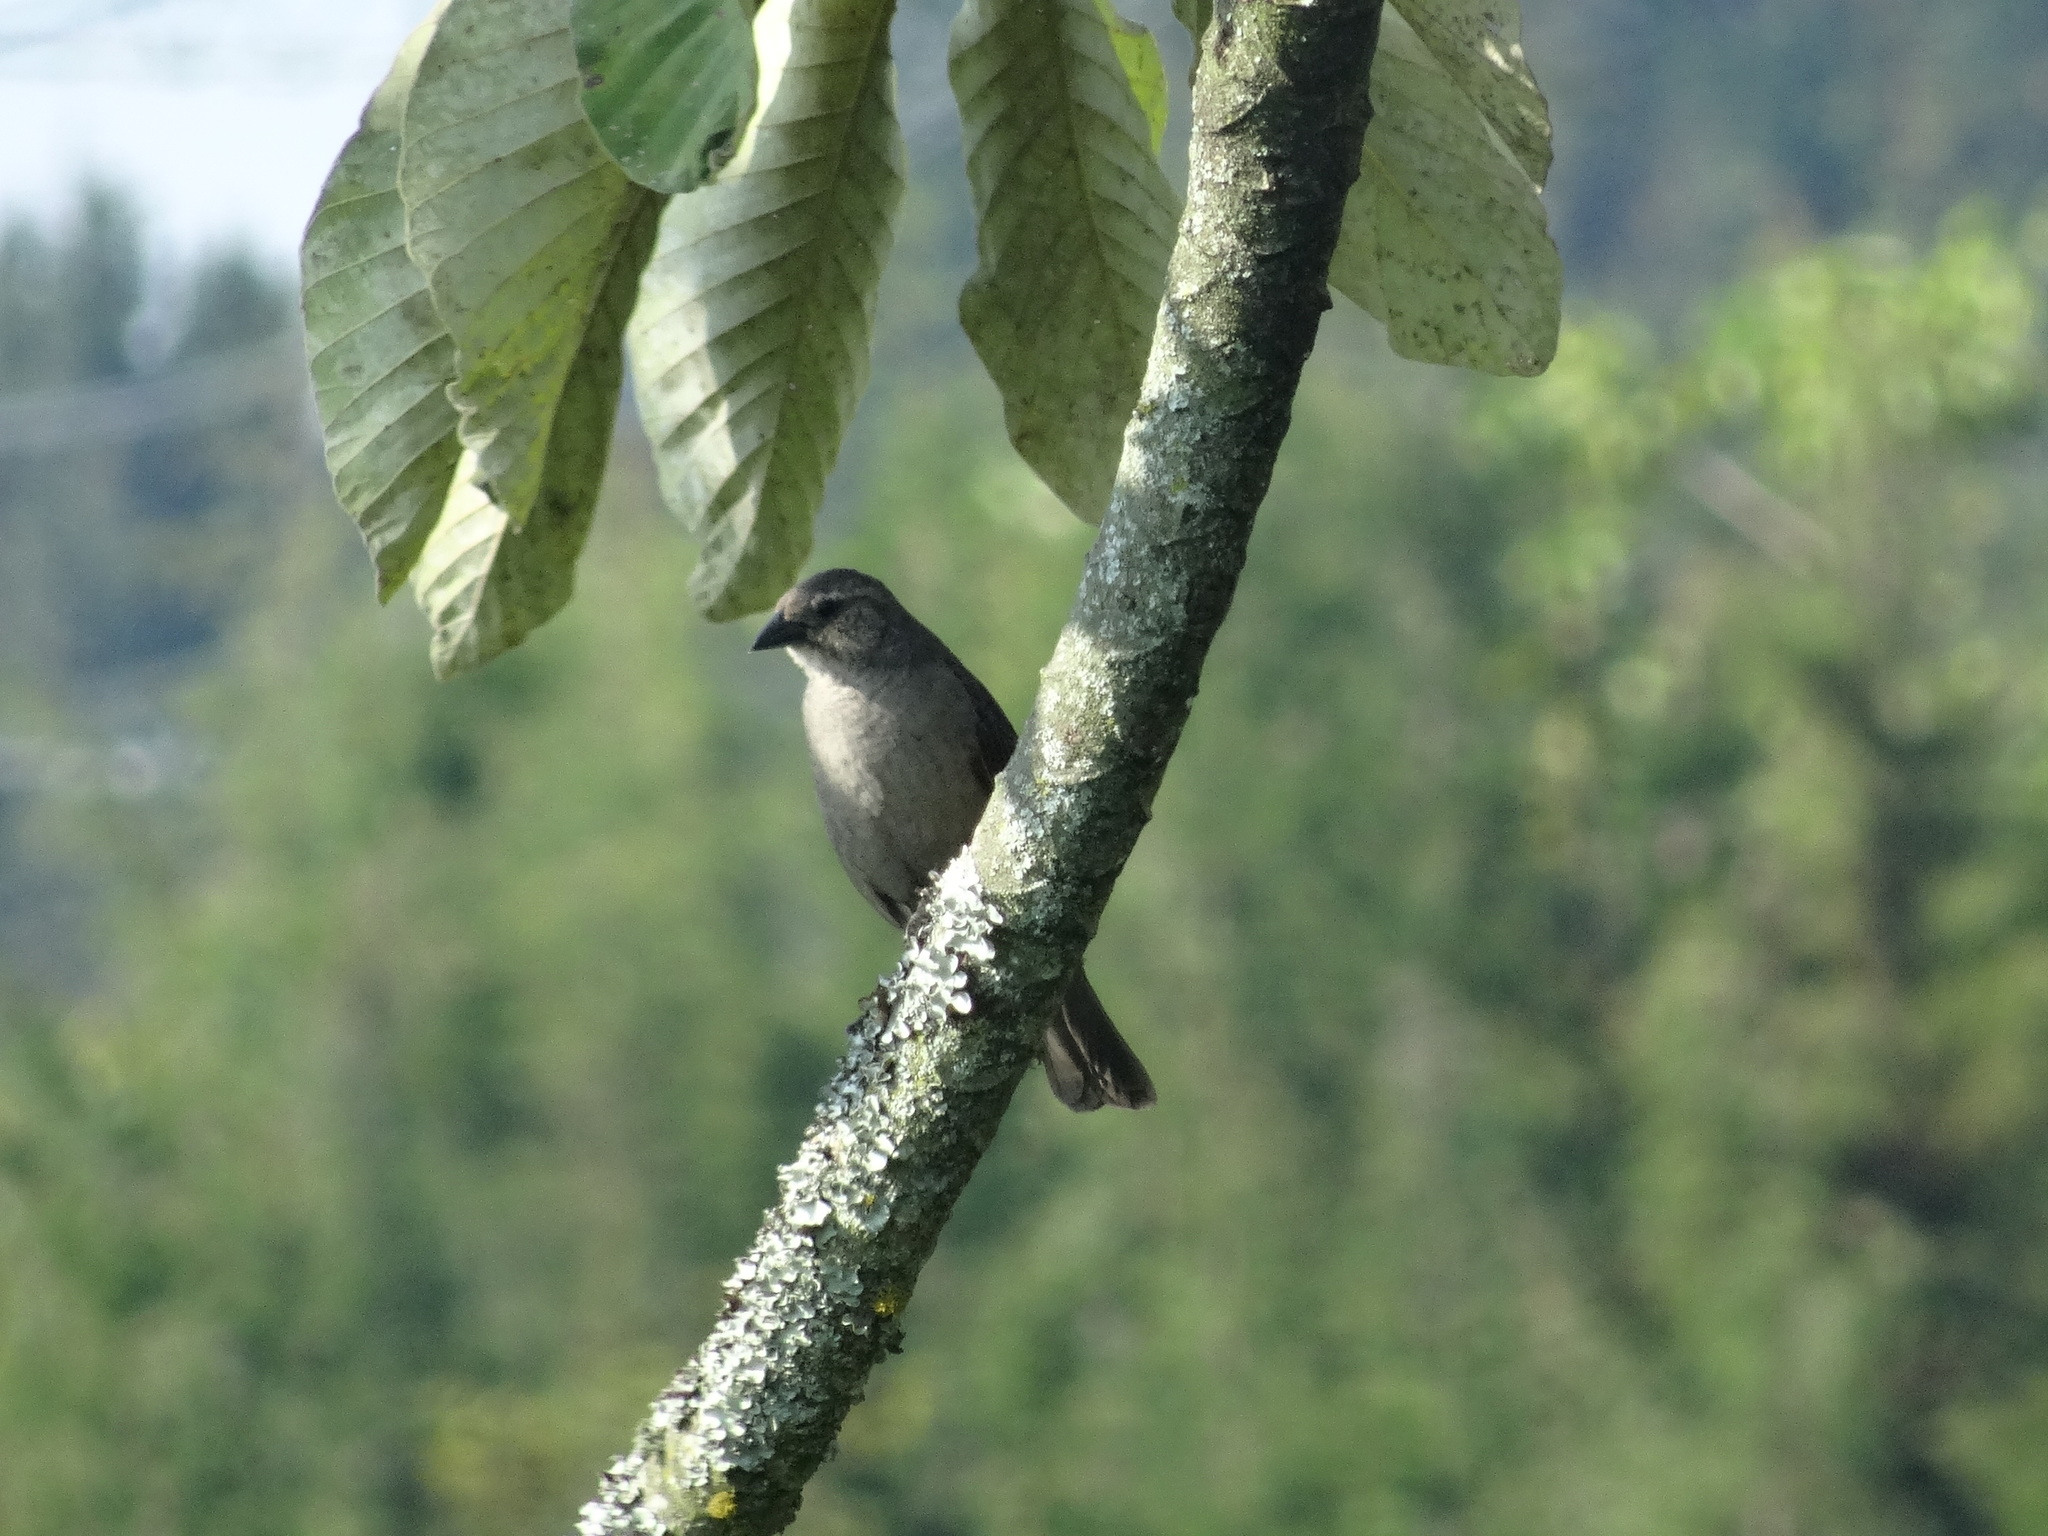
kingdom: Animalia
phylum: Chordata
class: Aves
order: Passeriformes
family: Icteridae
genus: Molothrus
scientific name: Molothrus bonariensis
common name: Shiny cowbird
